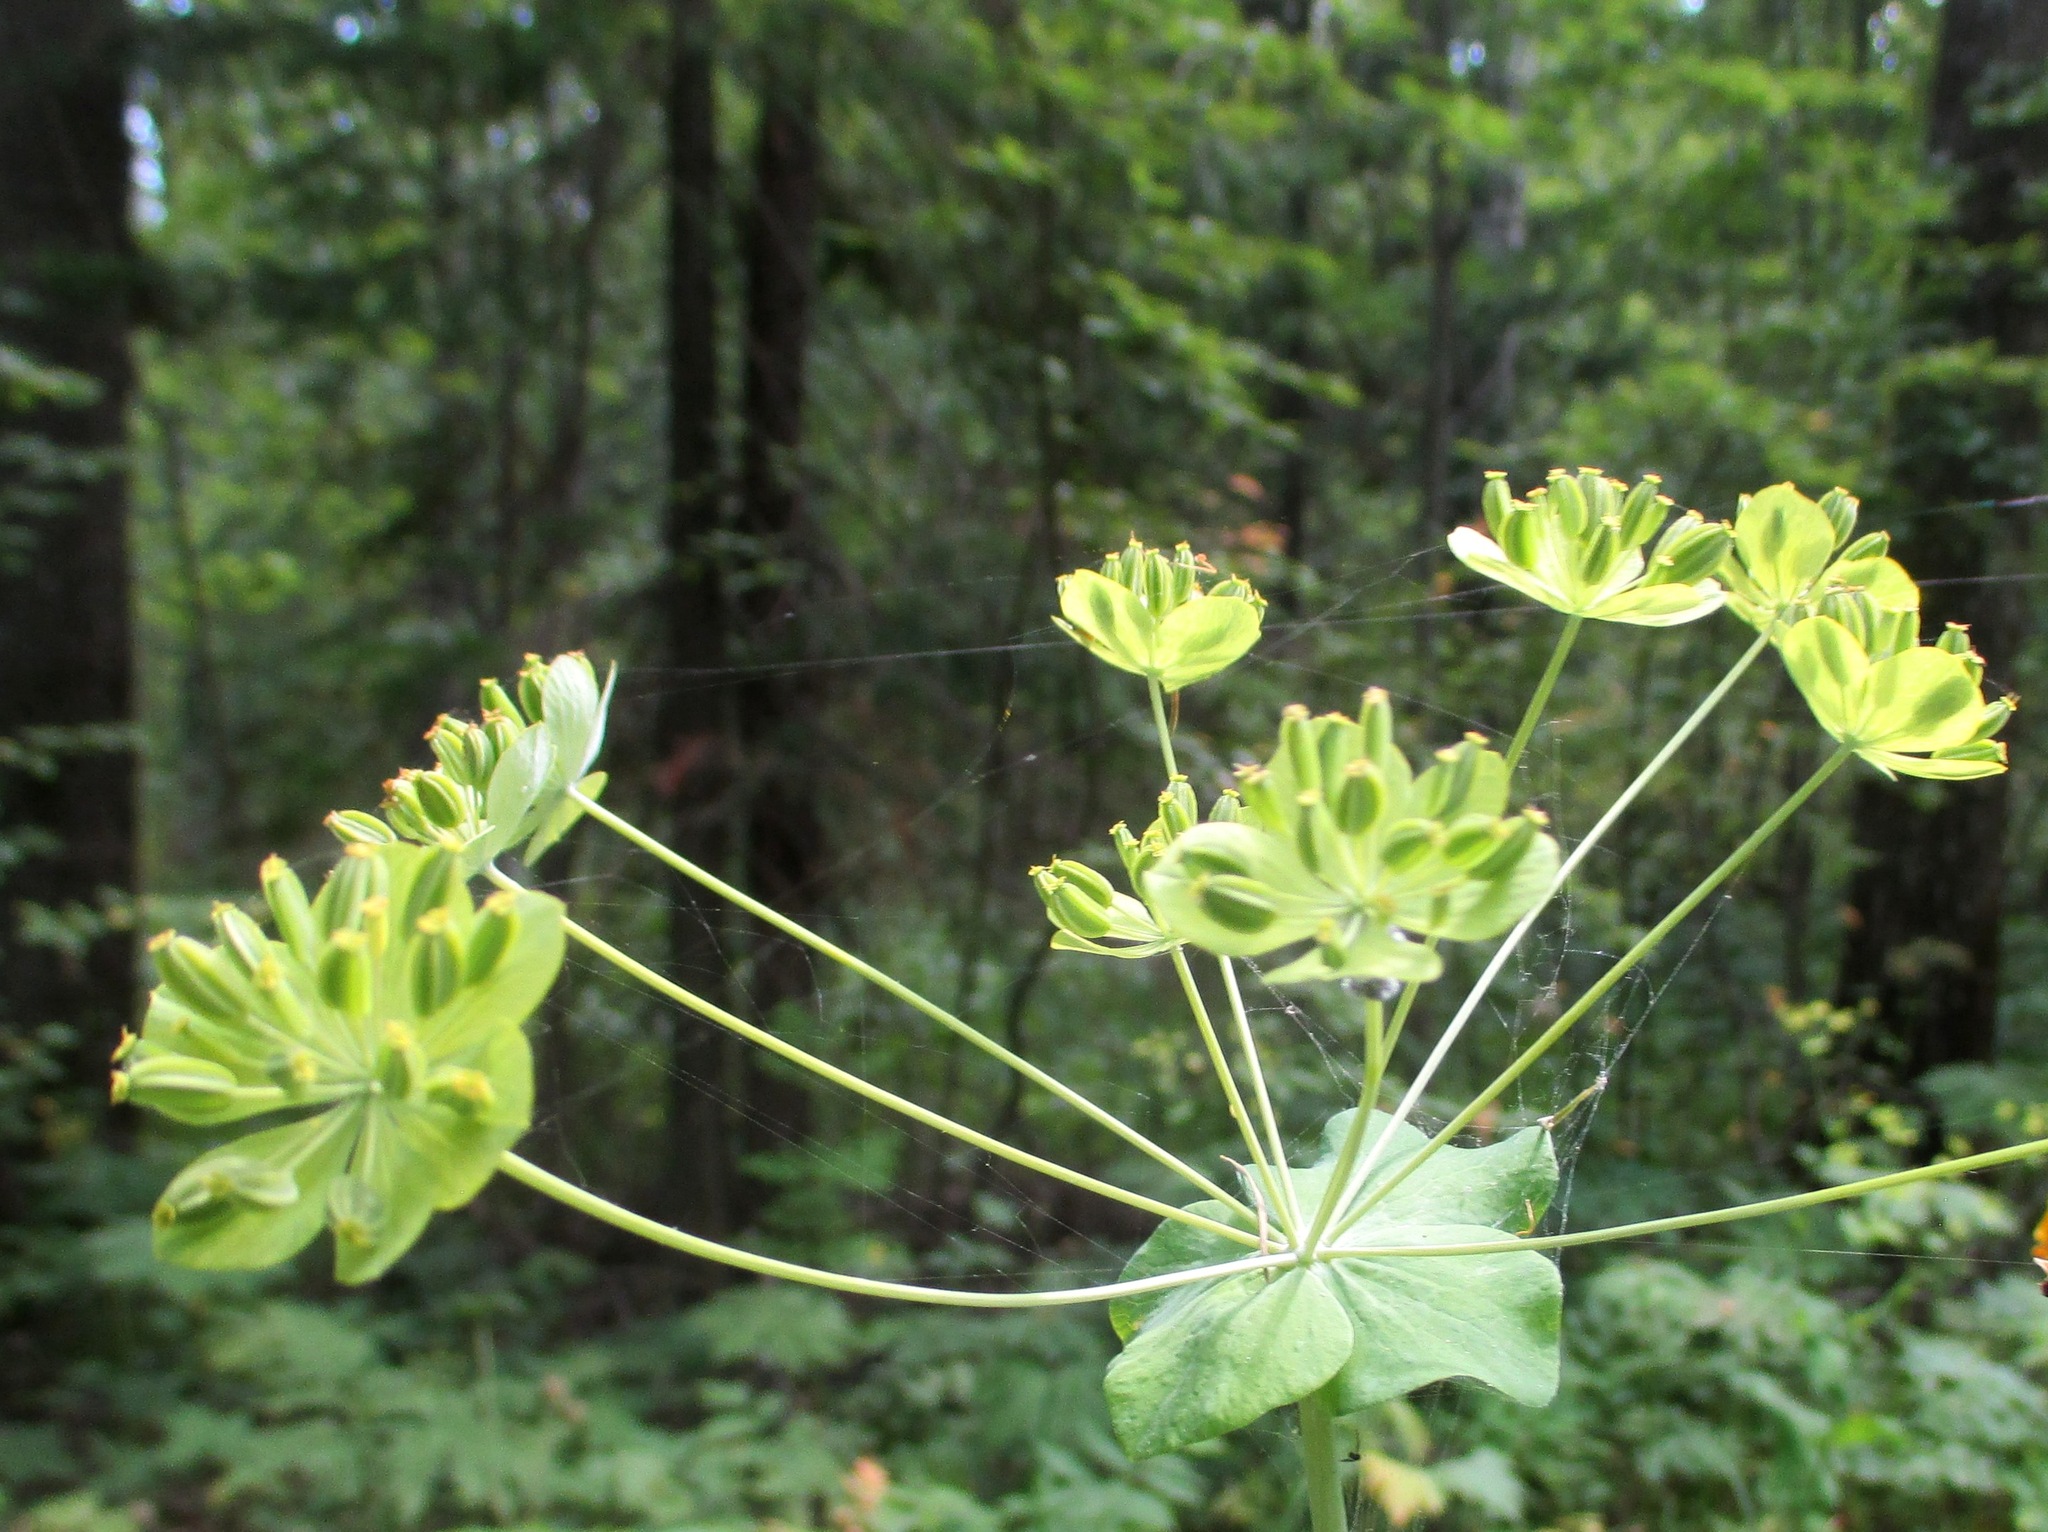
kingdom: Plantae
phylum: Tracheophyta
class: Magnoliopsida
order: Apiales
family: Apiaceae
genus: Bupleurum
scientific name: Bupleurum aureum
